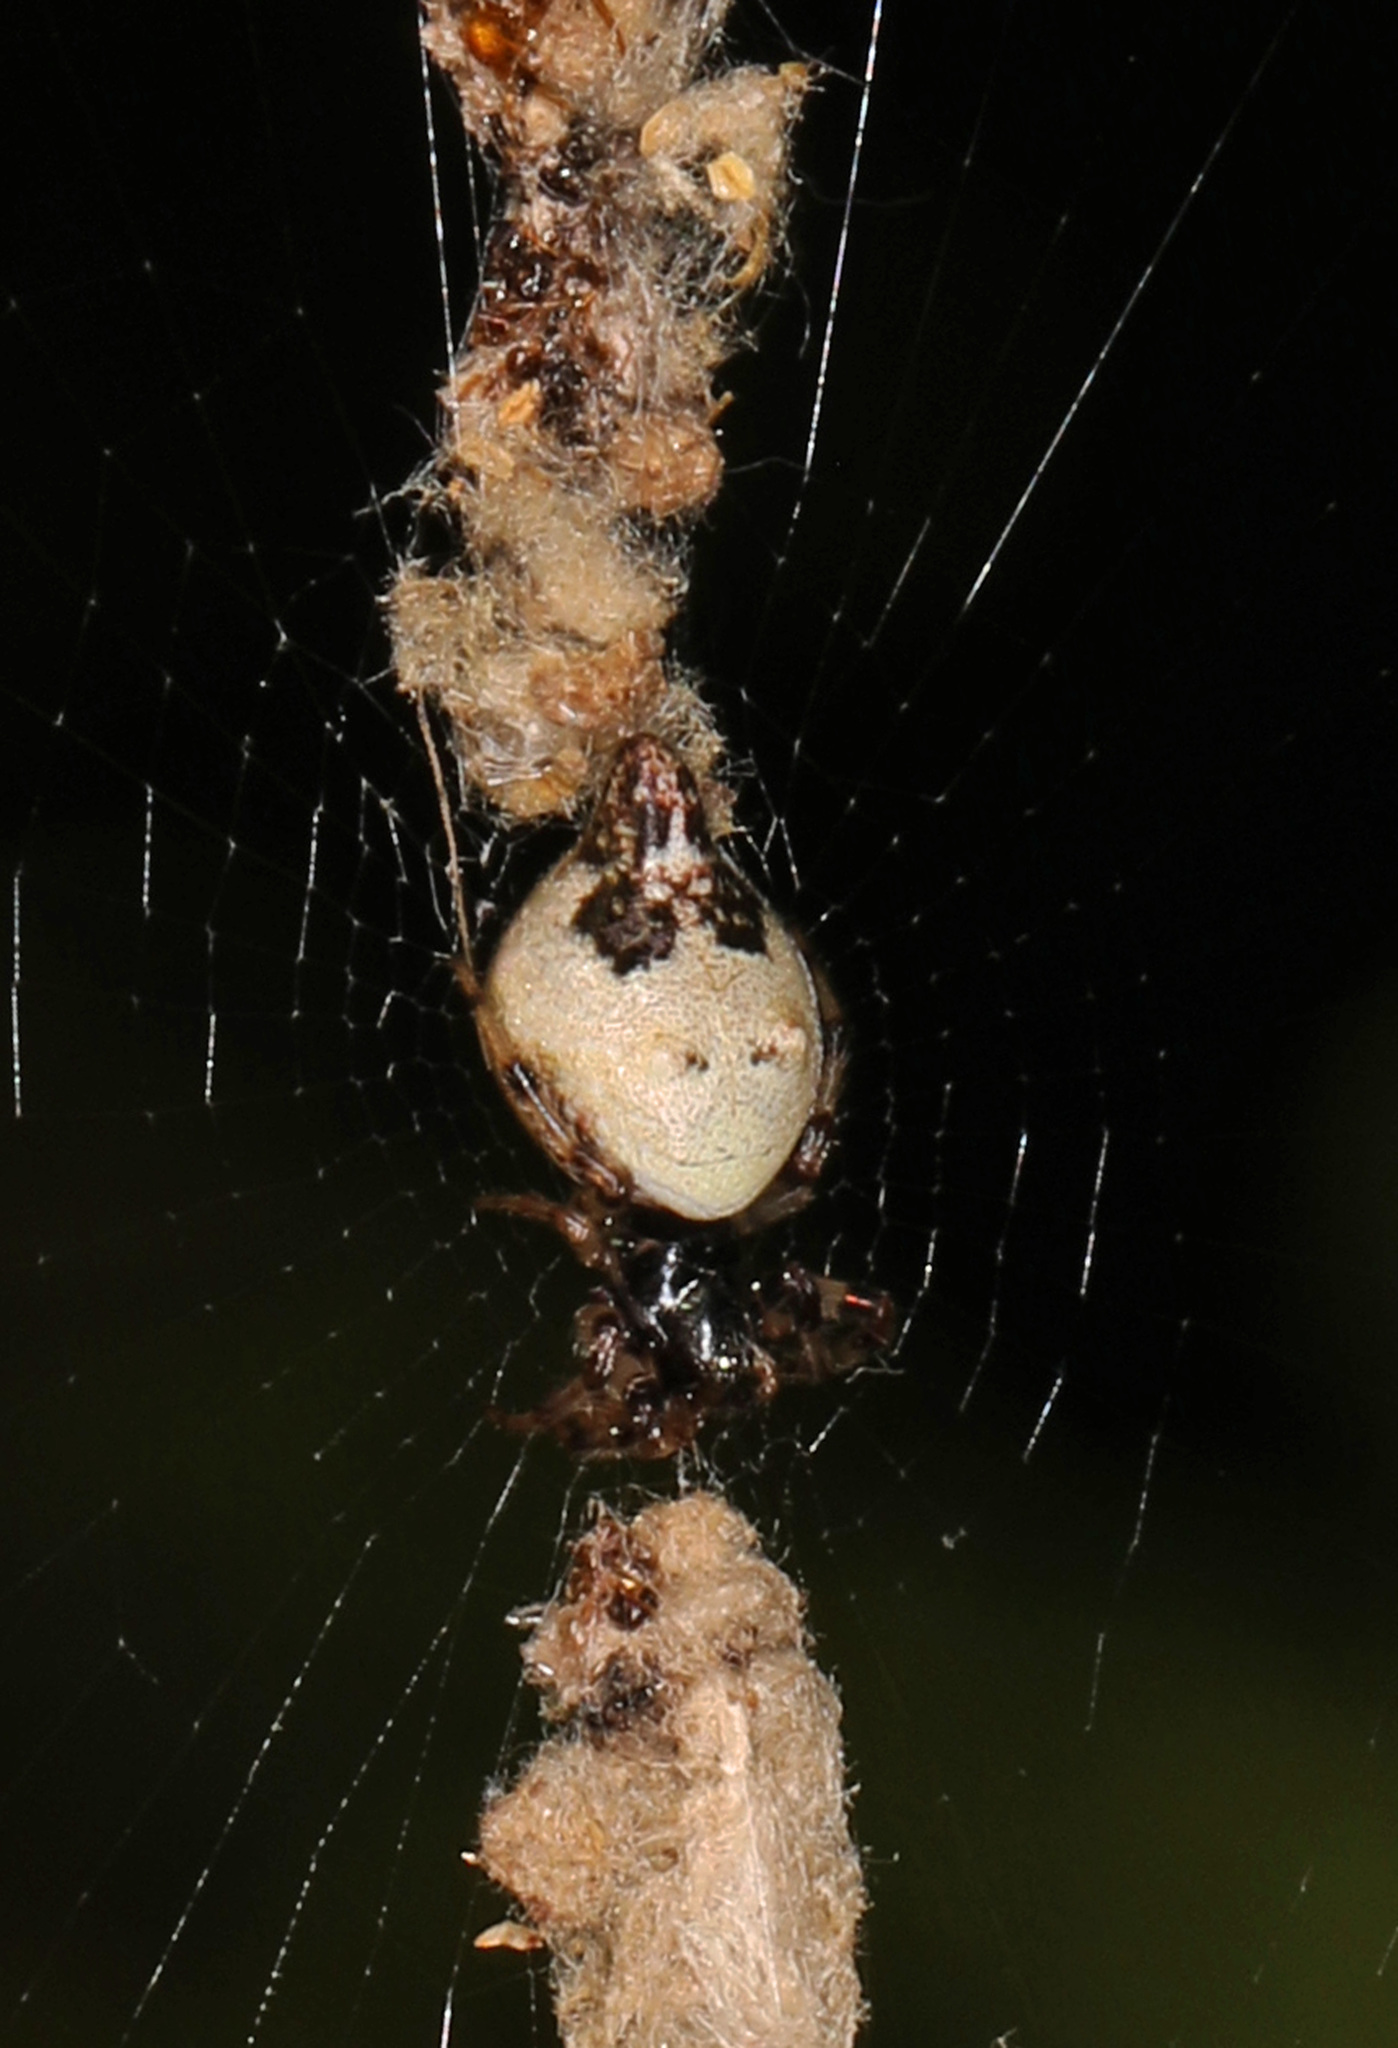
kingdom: Animalia
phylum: Arthropoda
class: Arachnida
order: Araneae
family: Araneidae
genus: Cyclosa
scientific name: Cyclosa turbinata
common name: Orb weavers
